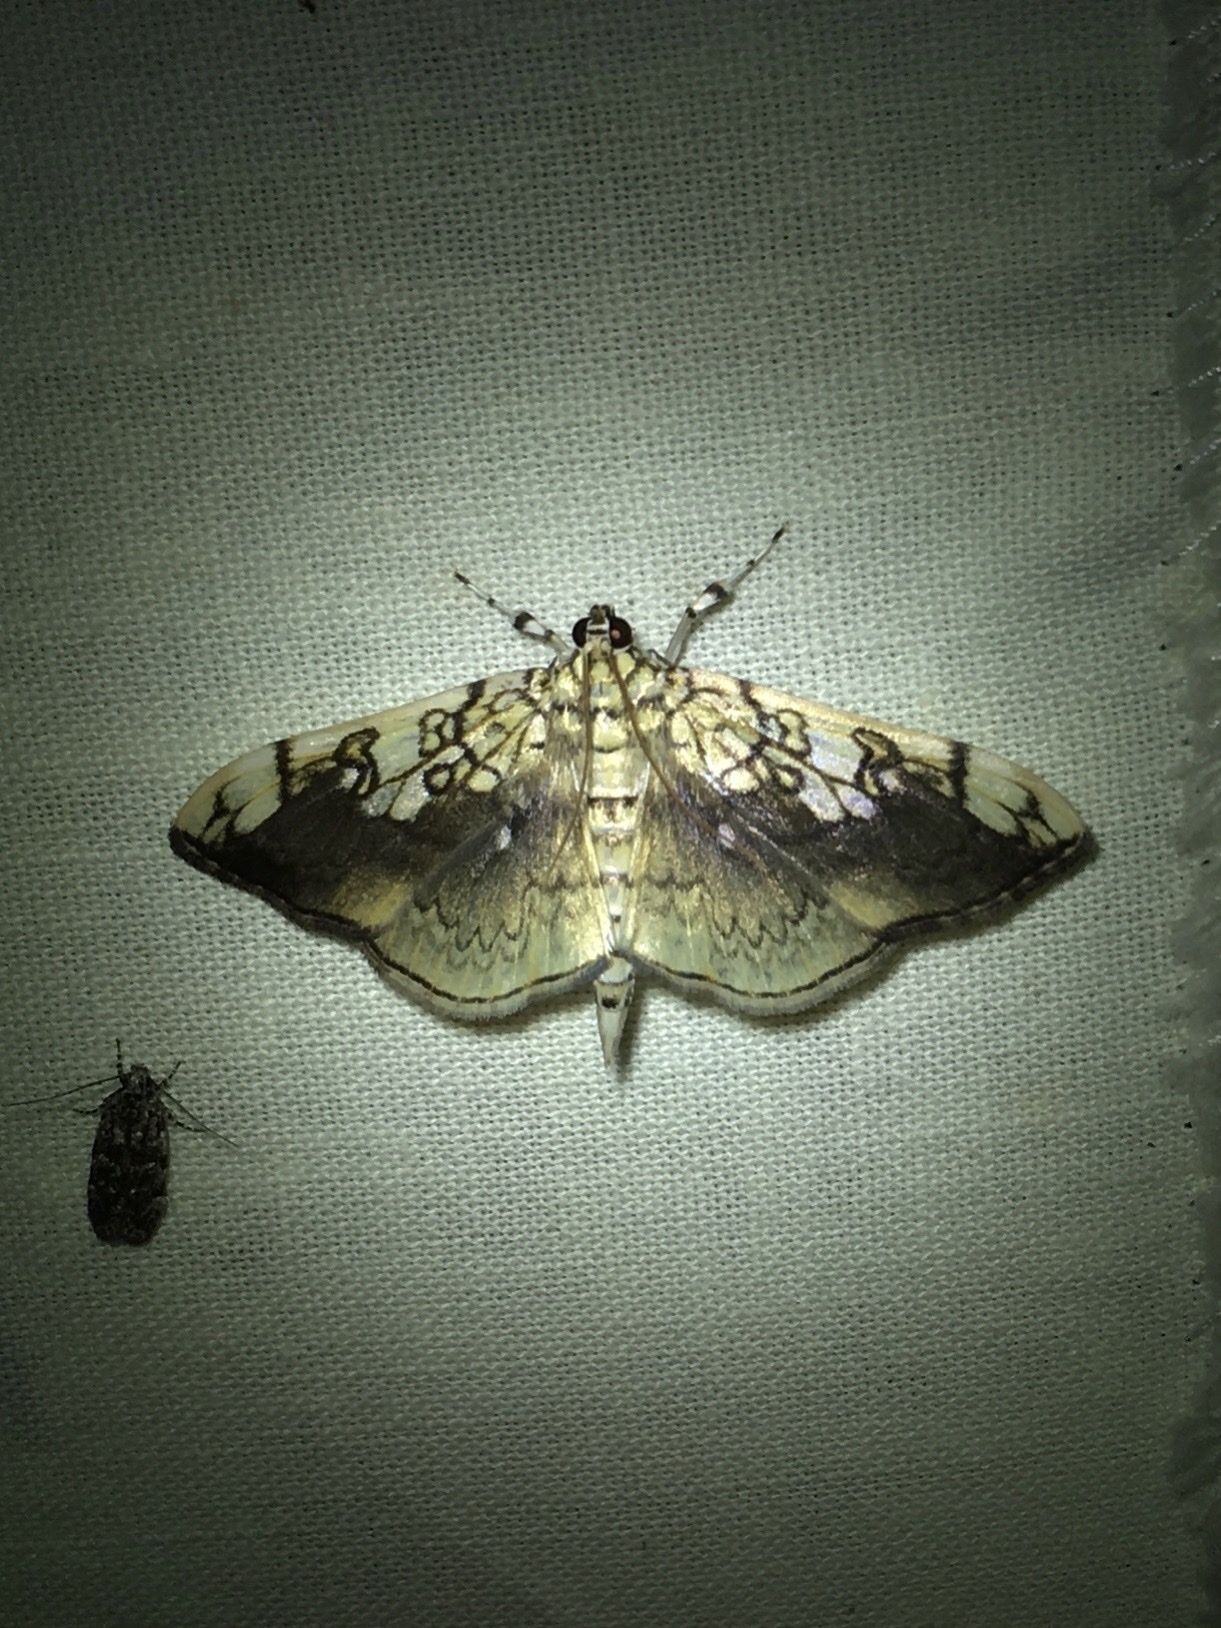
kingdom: Animalia
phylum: Arthropoda
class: Insecta
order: Lepidoptera
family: Crambidae
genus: Pantographa
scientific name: Pantographa limata
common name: Basswood leafroller moth
